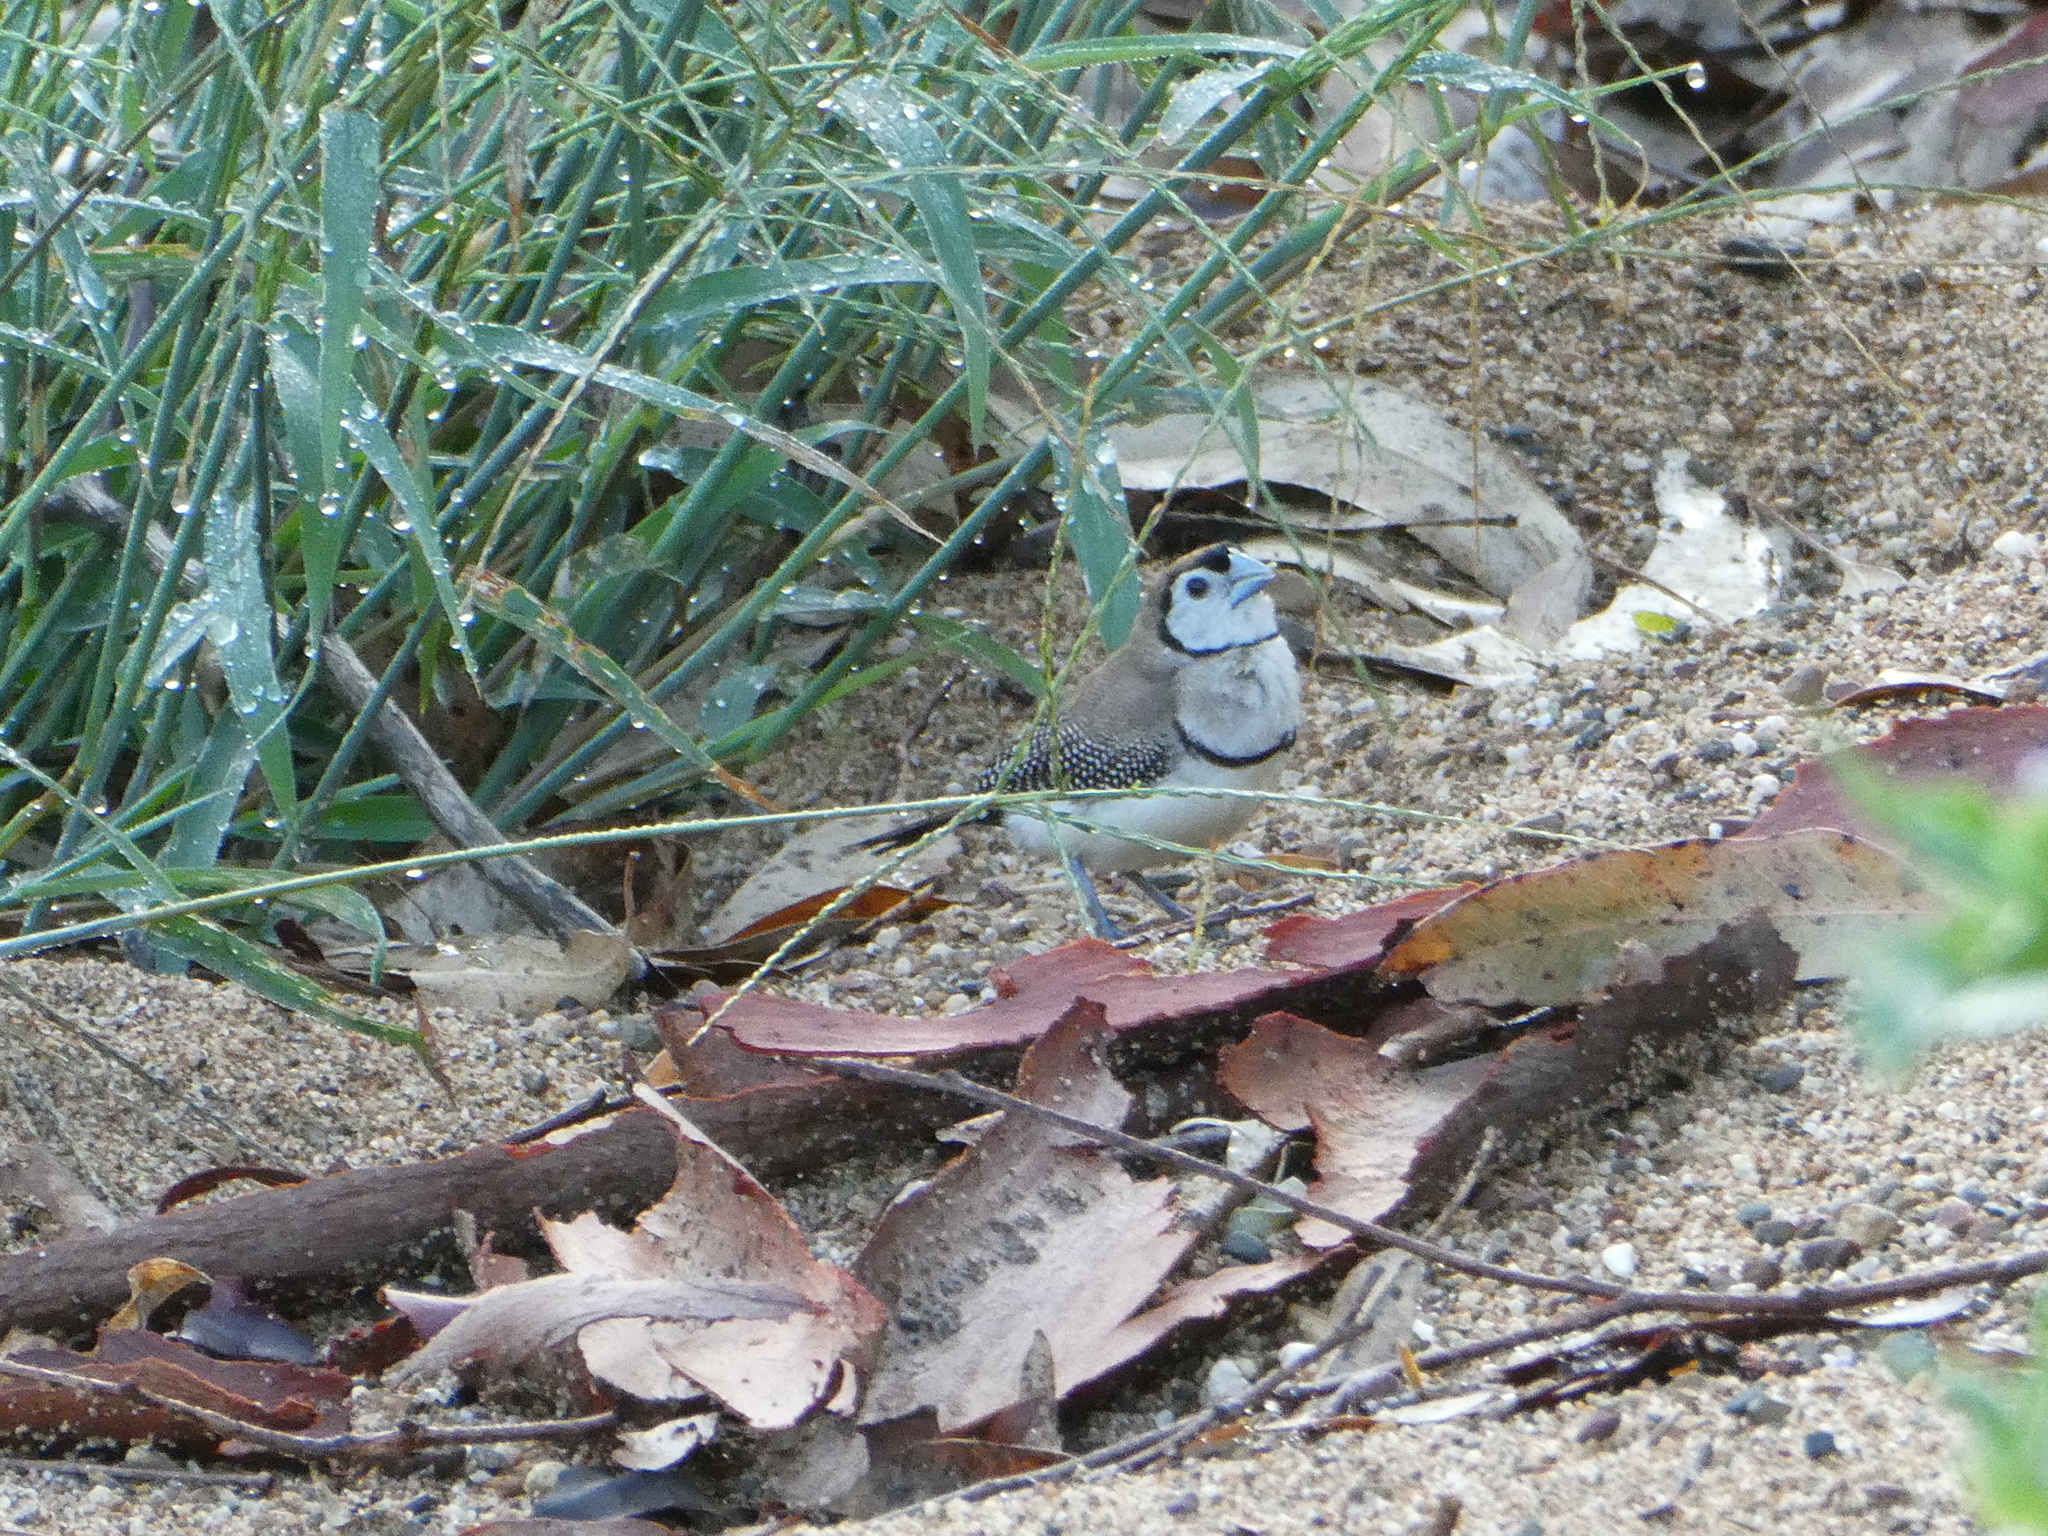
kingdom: Animalia
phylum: Chordata
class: Aves
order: Passeriformes
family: Estrildidae
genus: Taeniopygia
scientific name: Taeniopygia bichenovii
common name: Double-barred finch
